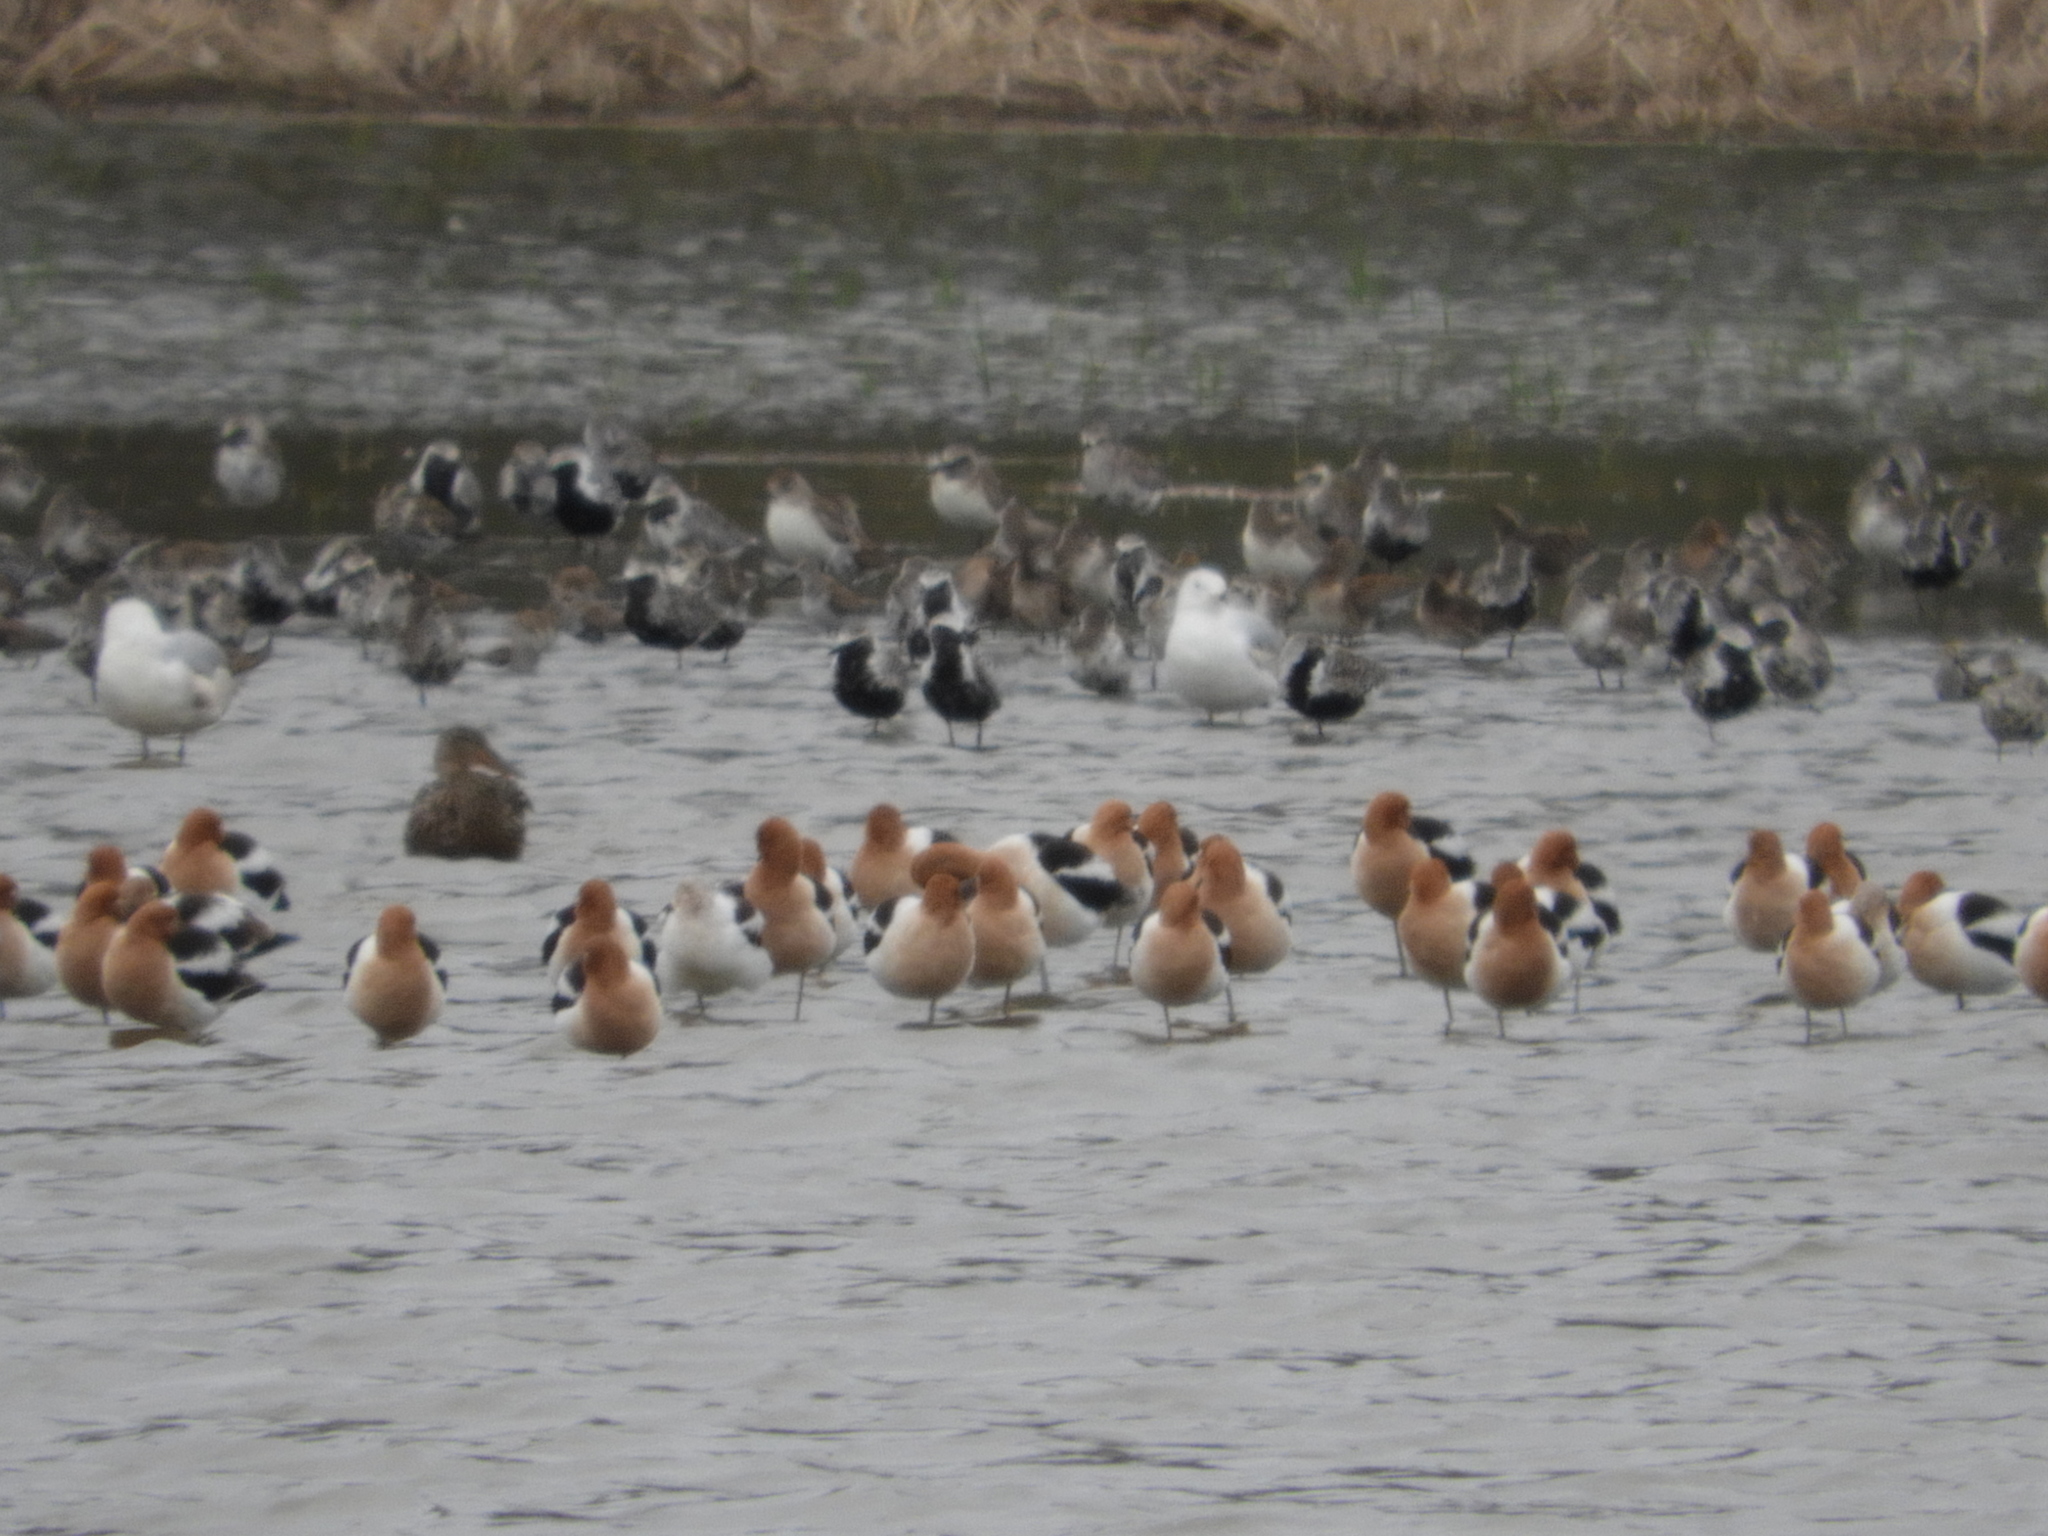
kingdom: Animalia
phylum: Chordata
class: Aves
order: Charadriiformes
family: Charadriidae
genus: Pluvialis
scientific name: Pluvialis squatarola
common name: Grey plover
